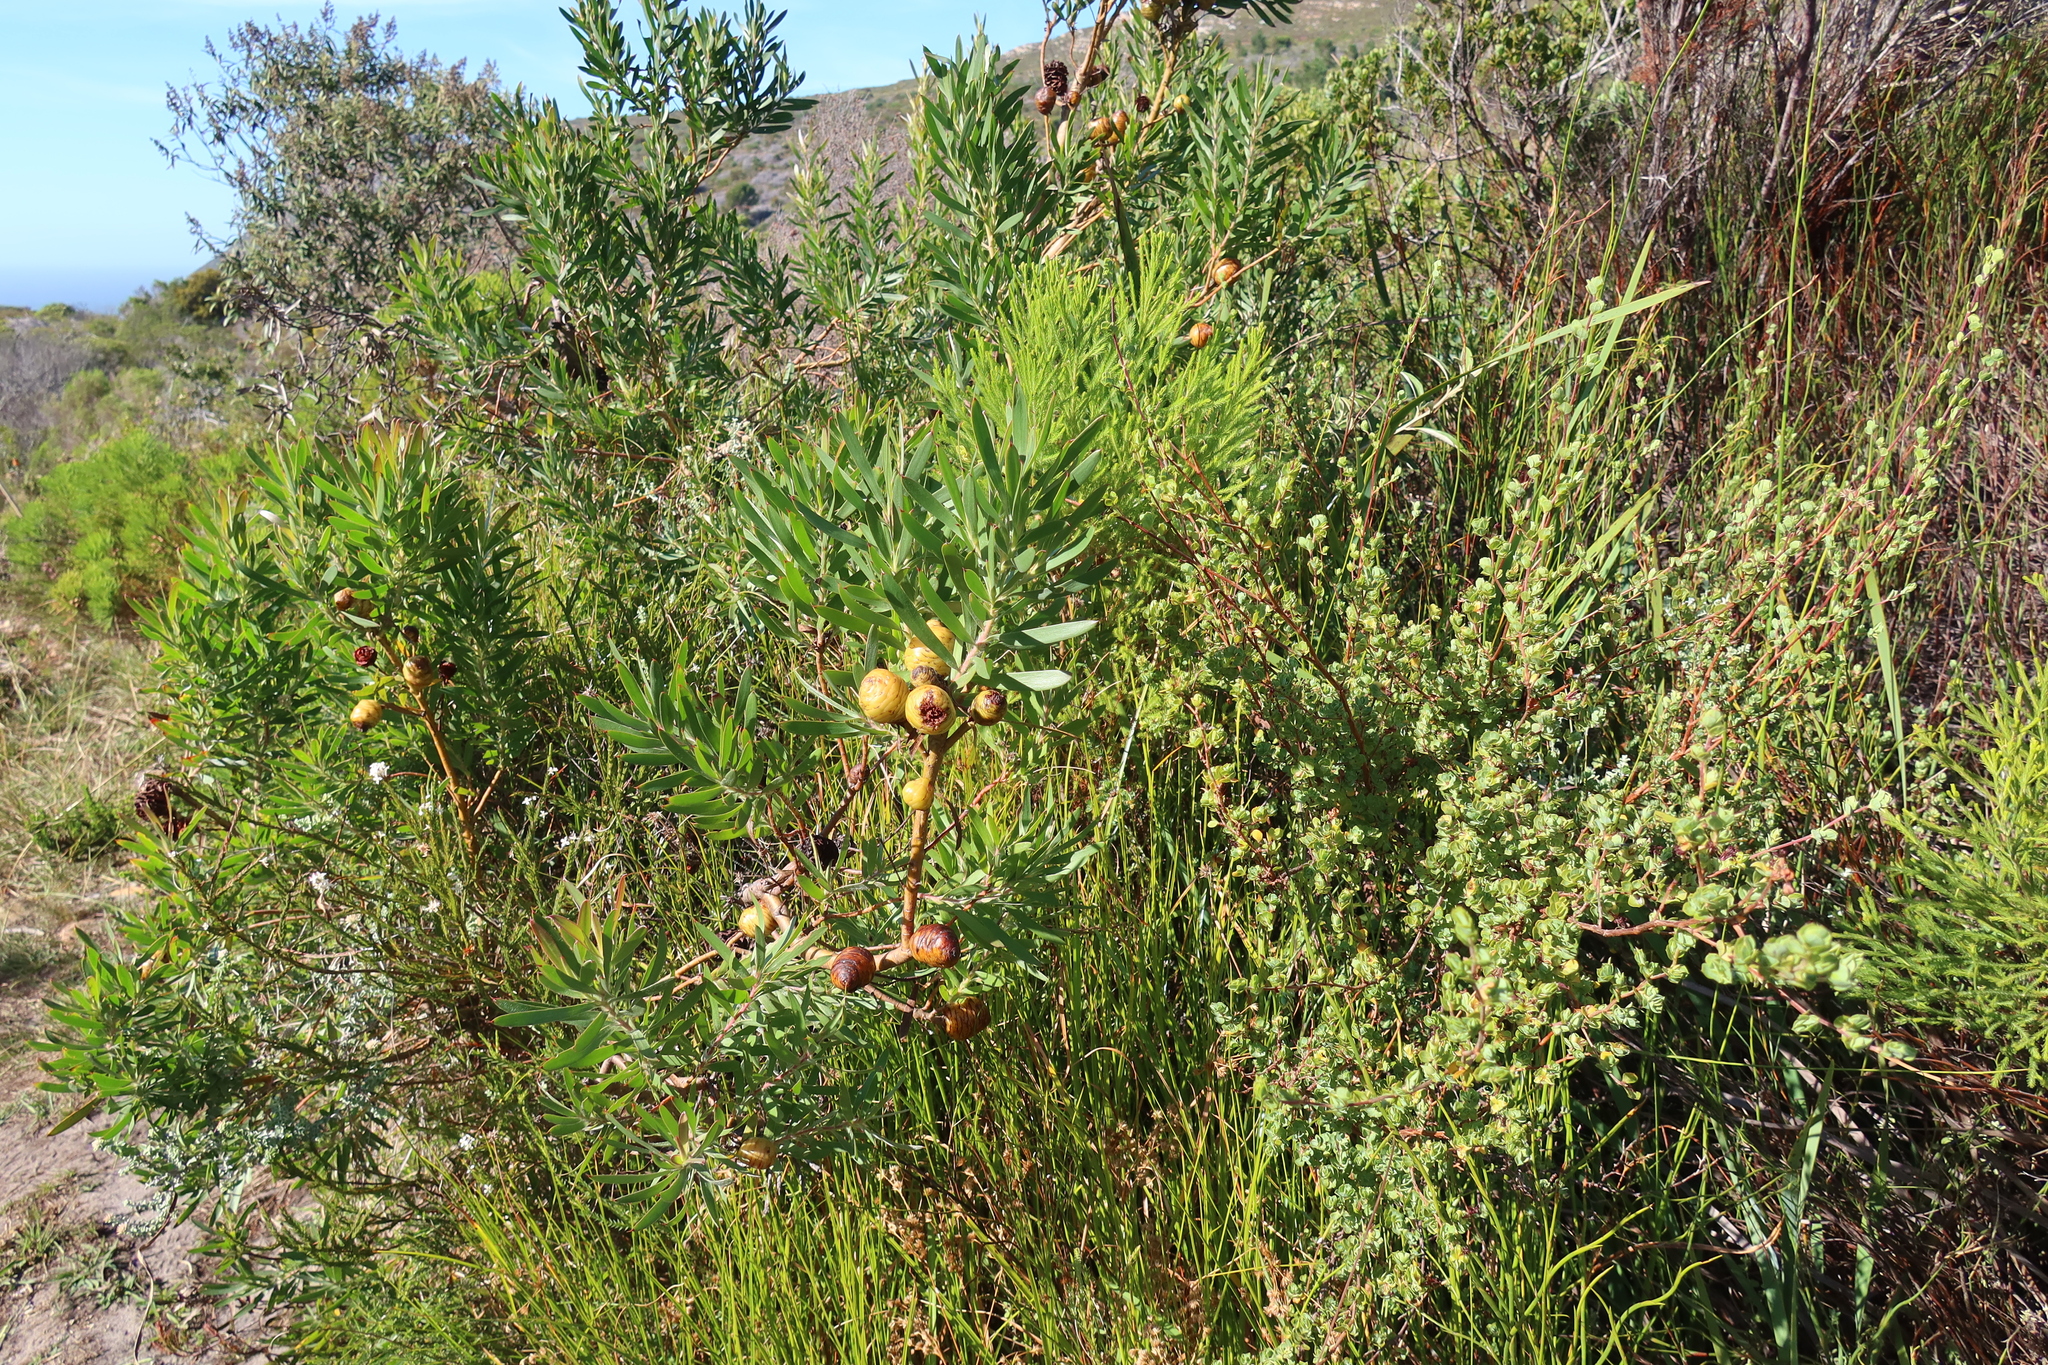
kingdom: Plantae
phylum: Tracheophyta
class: Magnoliopsida
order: Proteales
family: Proteaceae
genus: Leucadendron
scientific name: Leucadendron macowanii
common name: Acacia-leaf conebush
